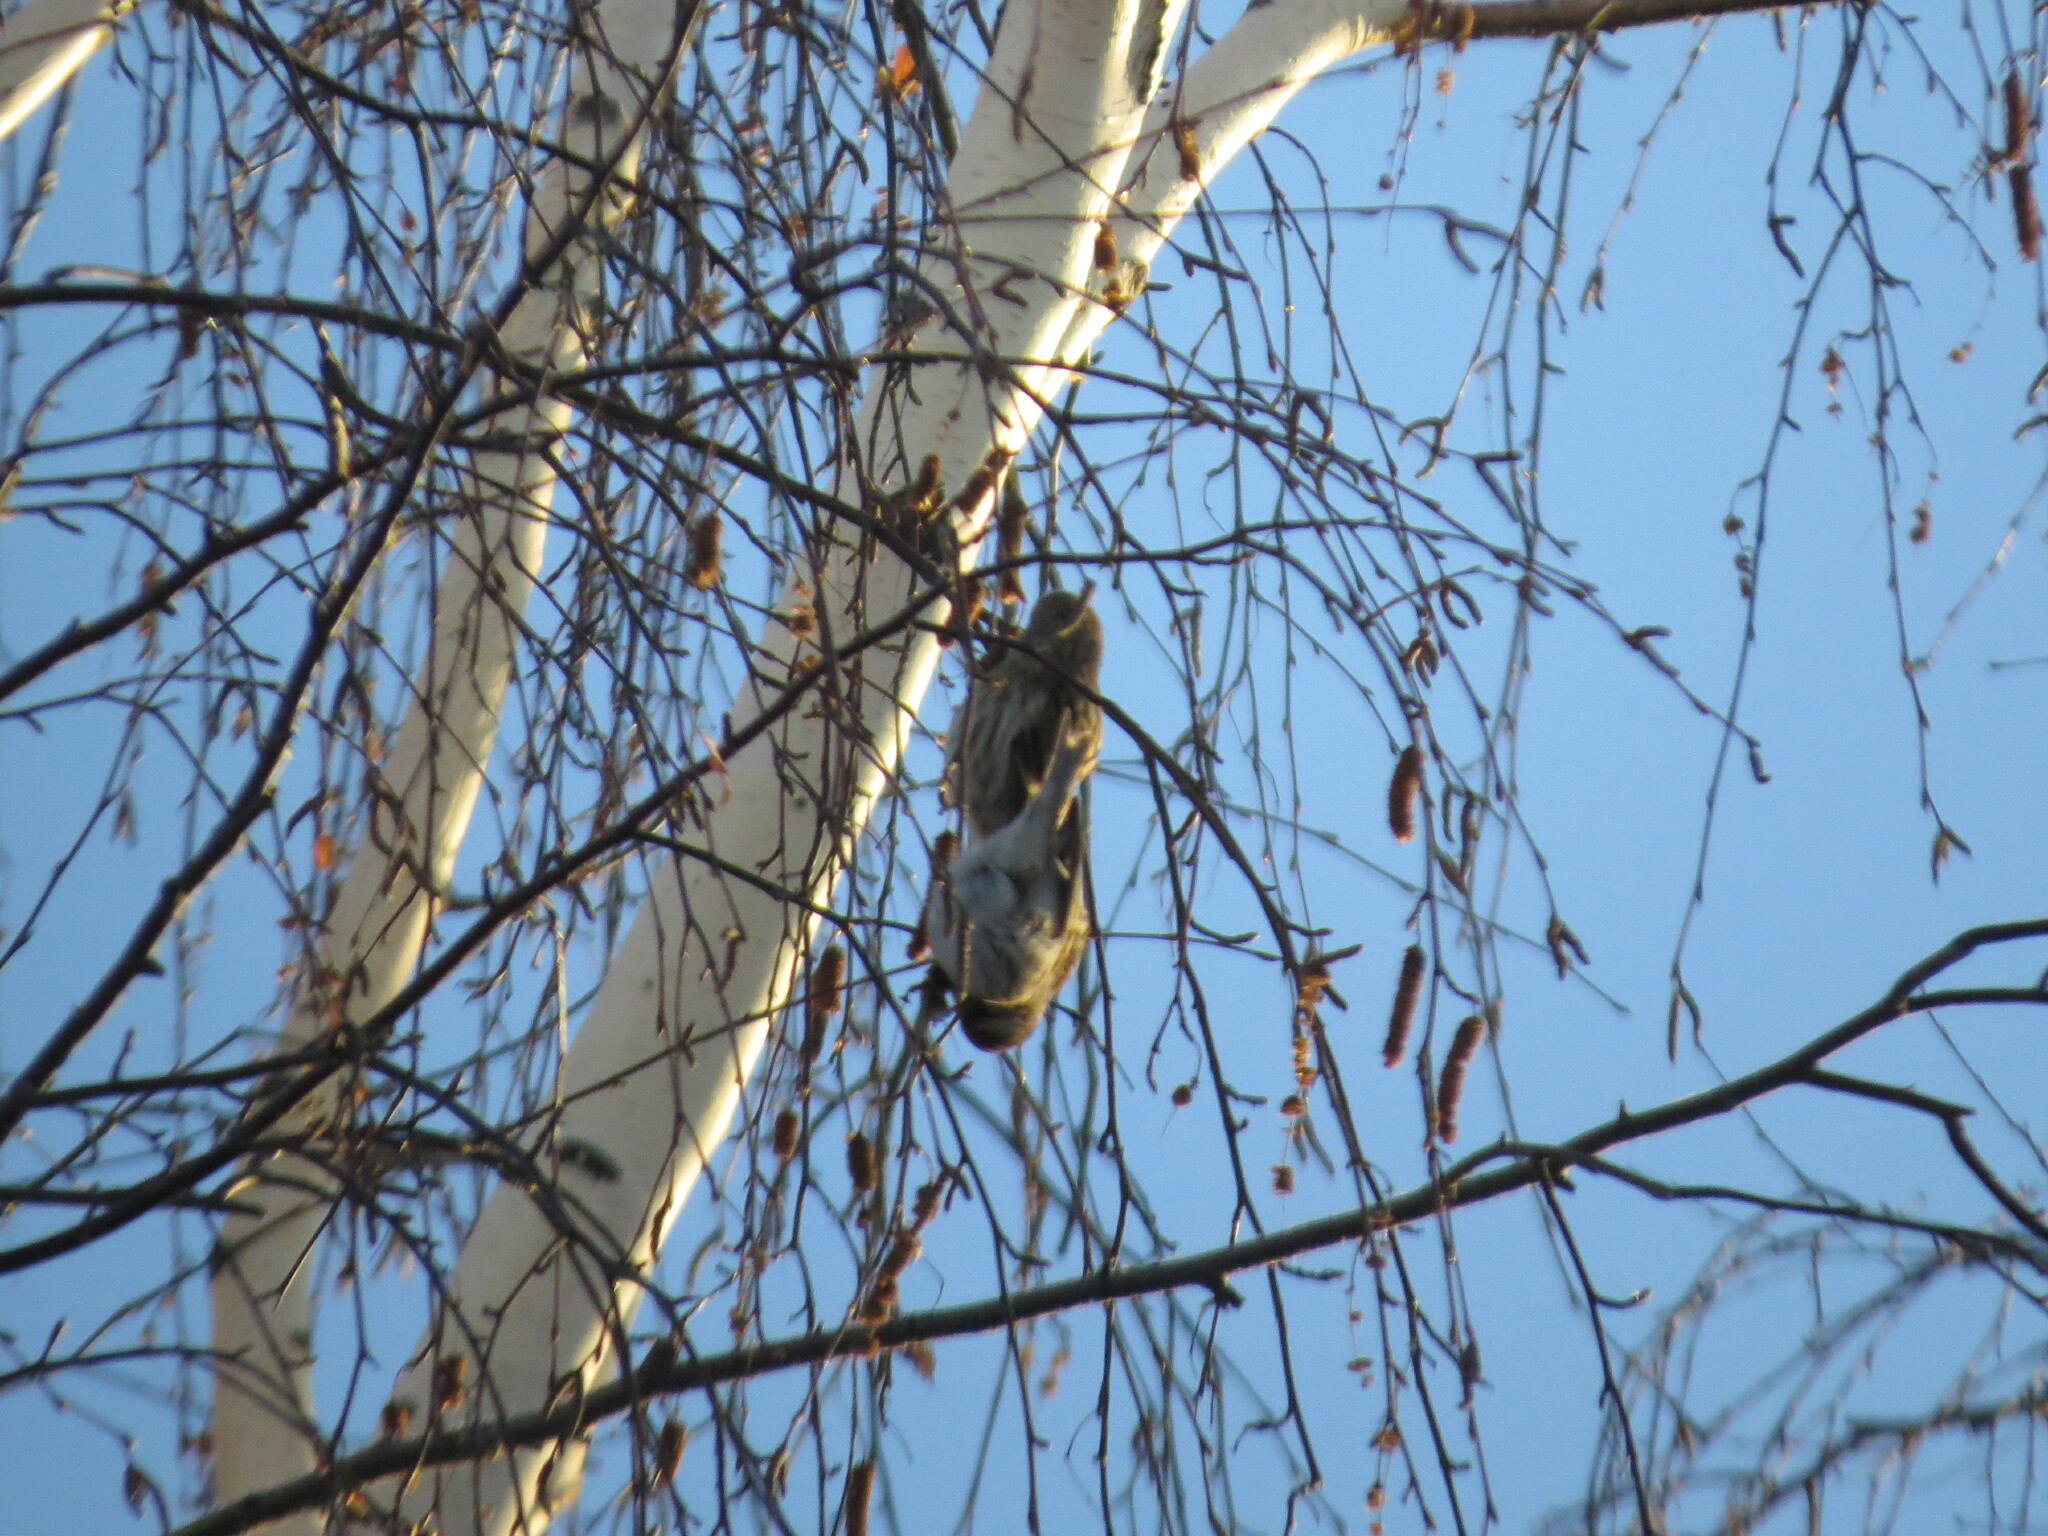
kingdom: Animalia
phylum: Chordata
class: Aves
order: Passeriformes
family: Fringillidae
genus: Acanthis
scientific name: Acanthis flammea
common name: Common redpoll
